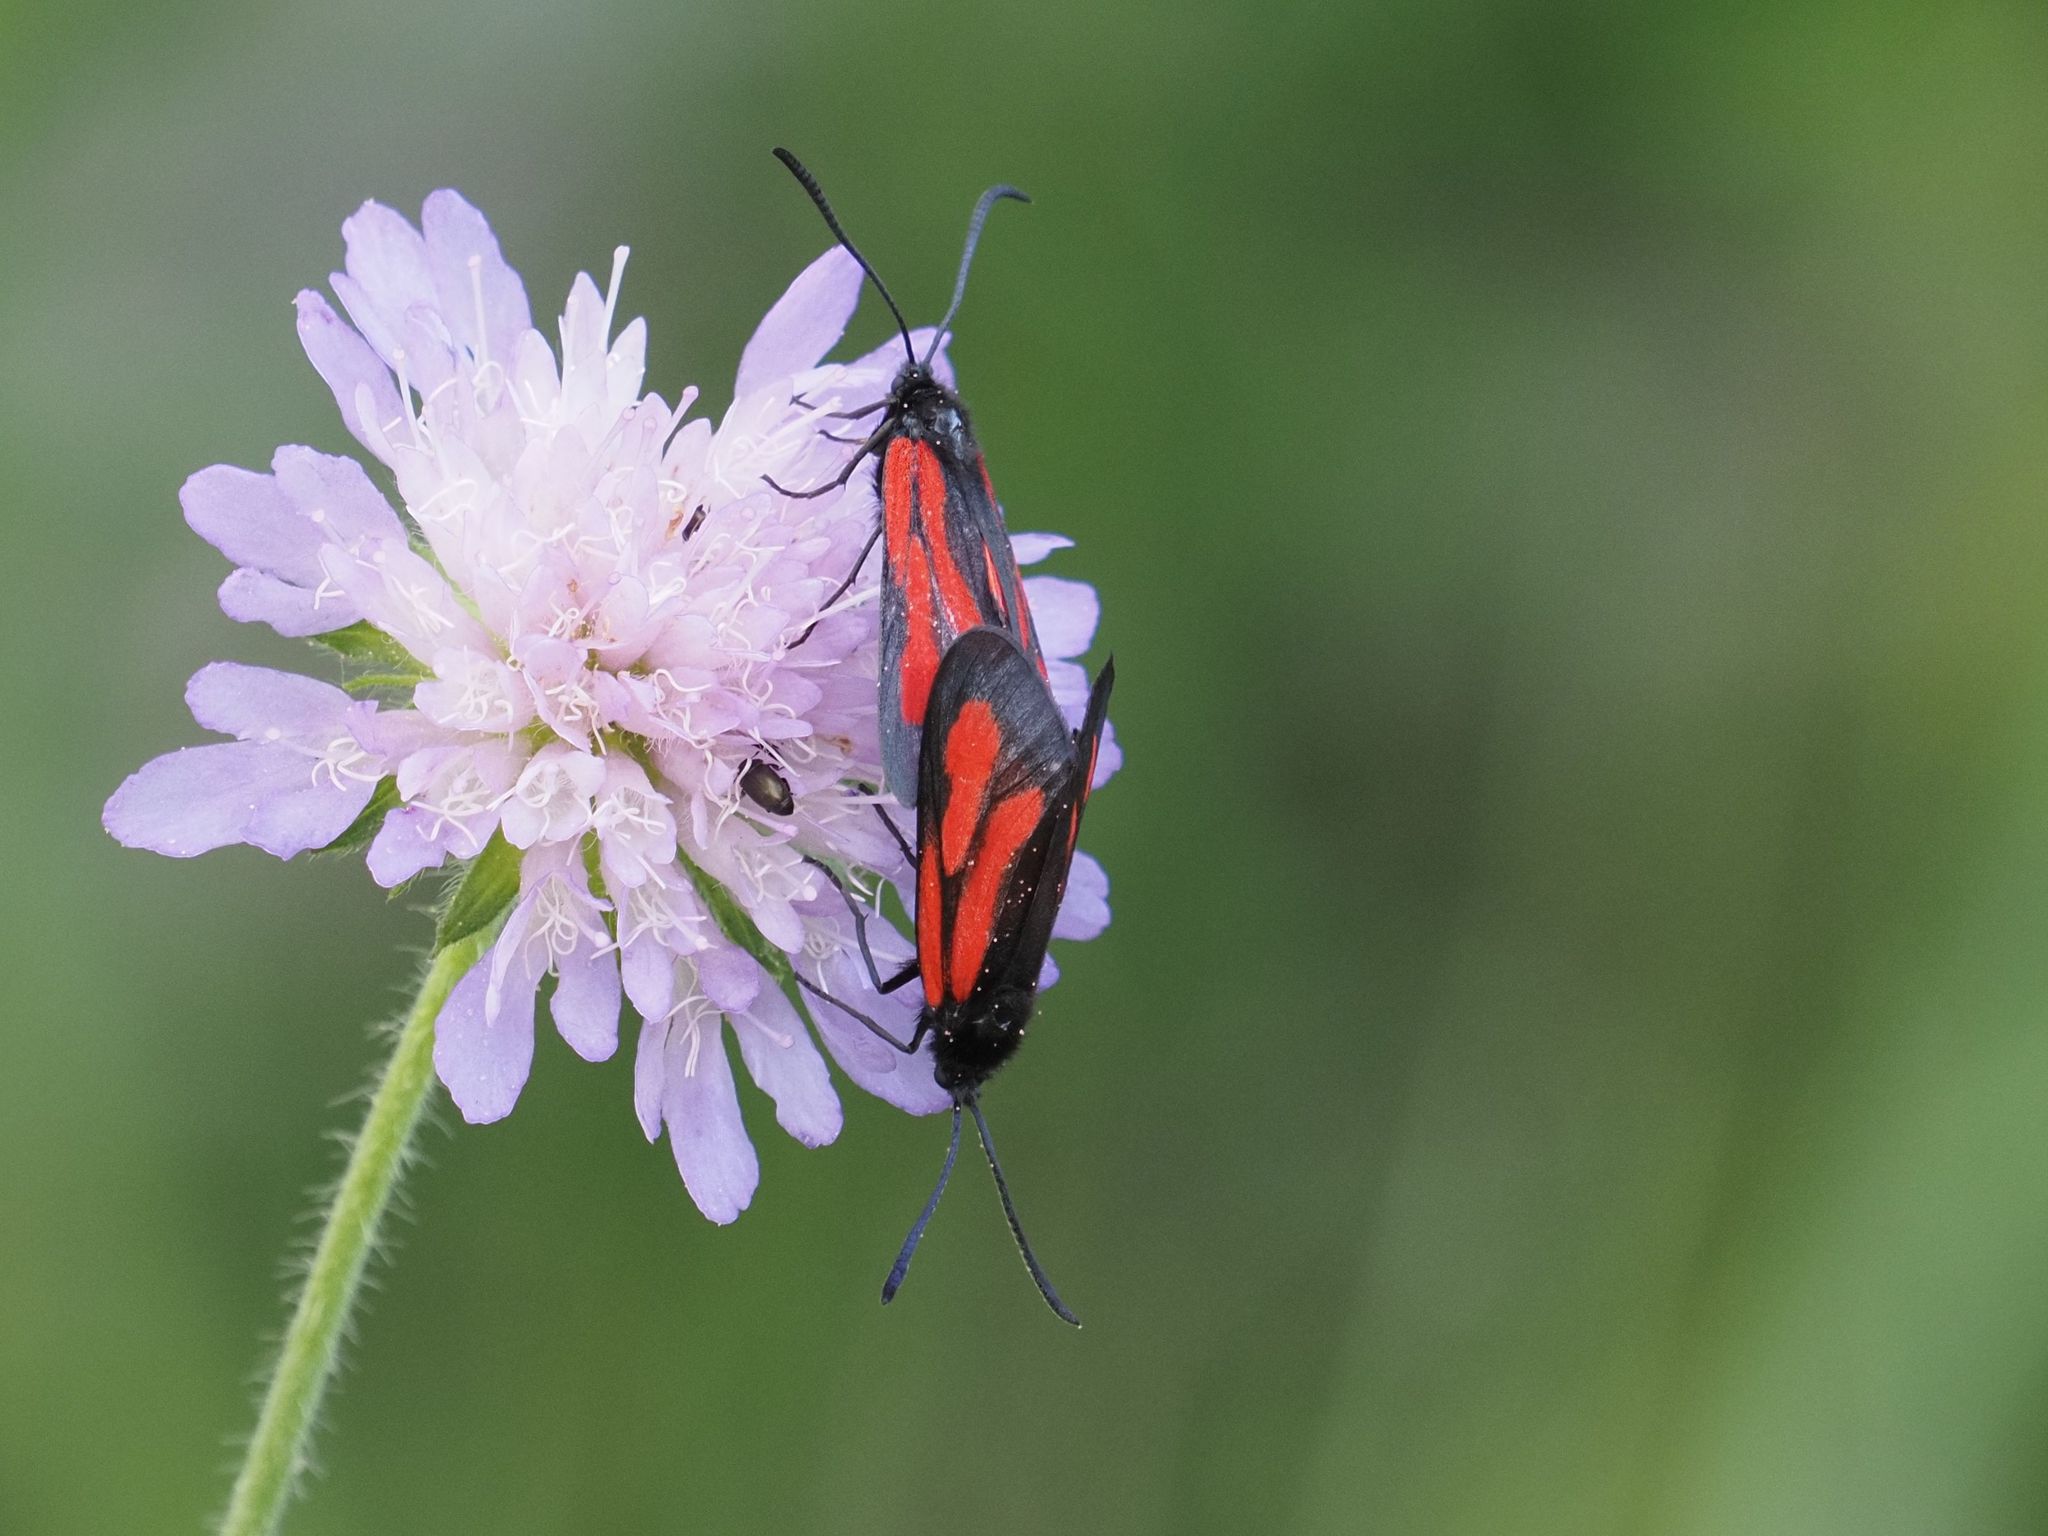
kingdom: Animalia
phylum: Arthropoda
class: Insecta
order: Lepidoptera
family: Zygaenidae
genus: Zygaena
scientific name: Zygaena osterodensis
